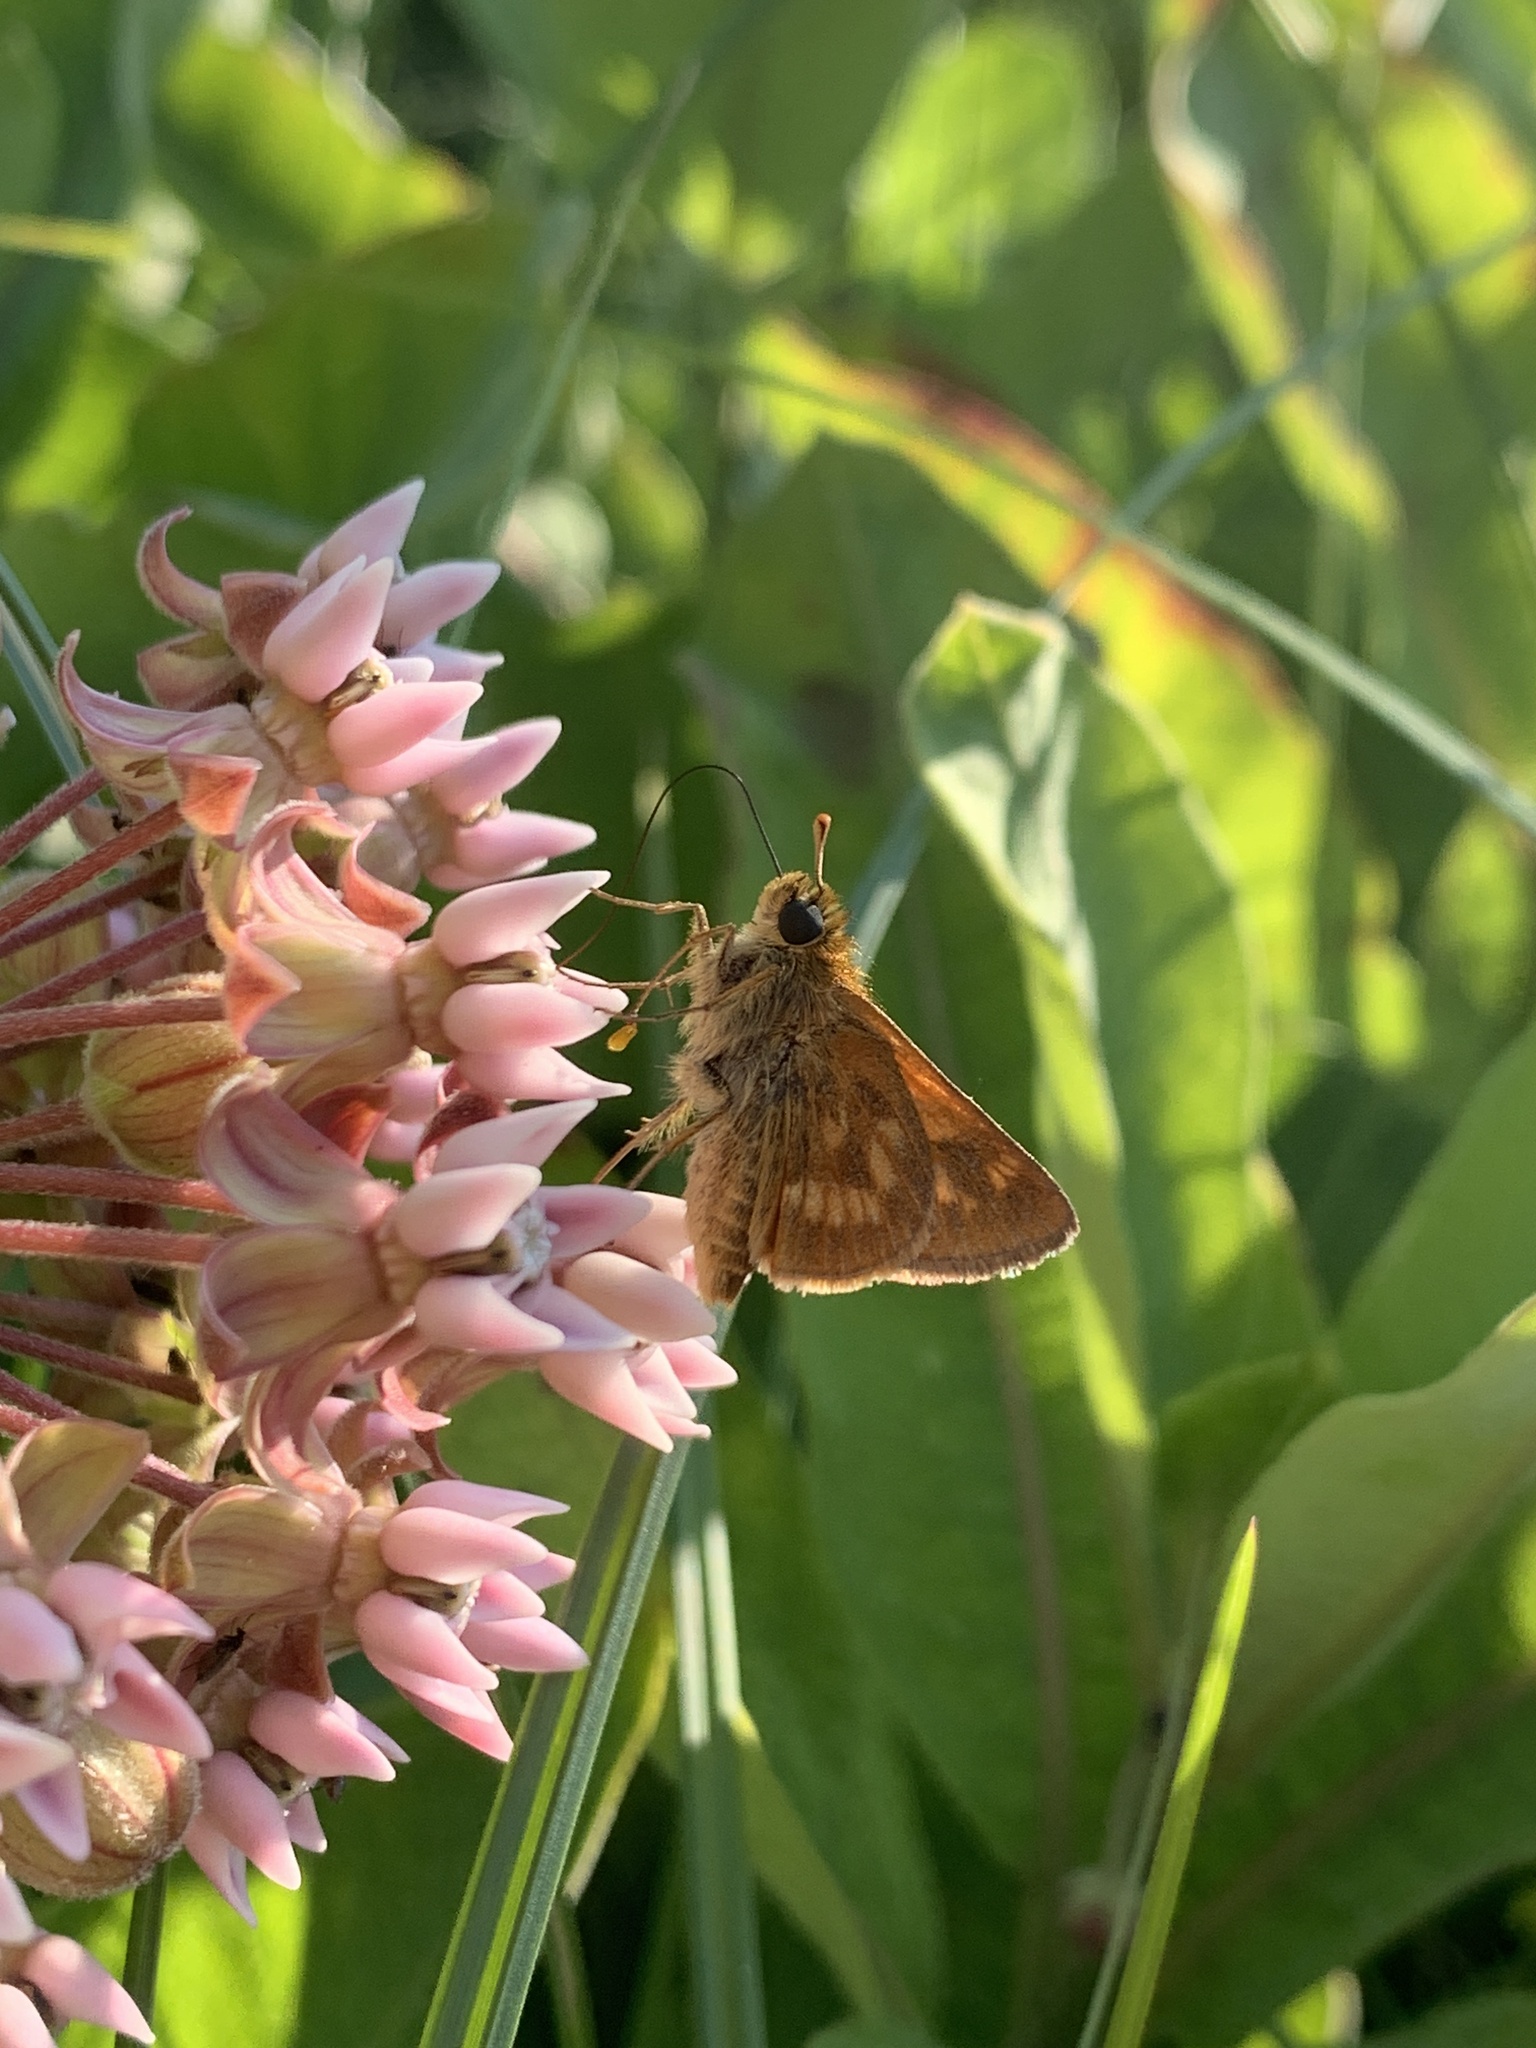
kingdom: Animalia
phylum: Arthropoda
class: Insecta
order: Lepidoptera
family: Hesperiidae
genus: Polites
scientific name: Polites mystic
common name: Long dash
